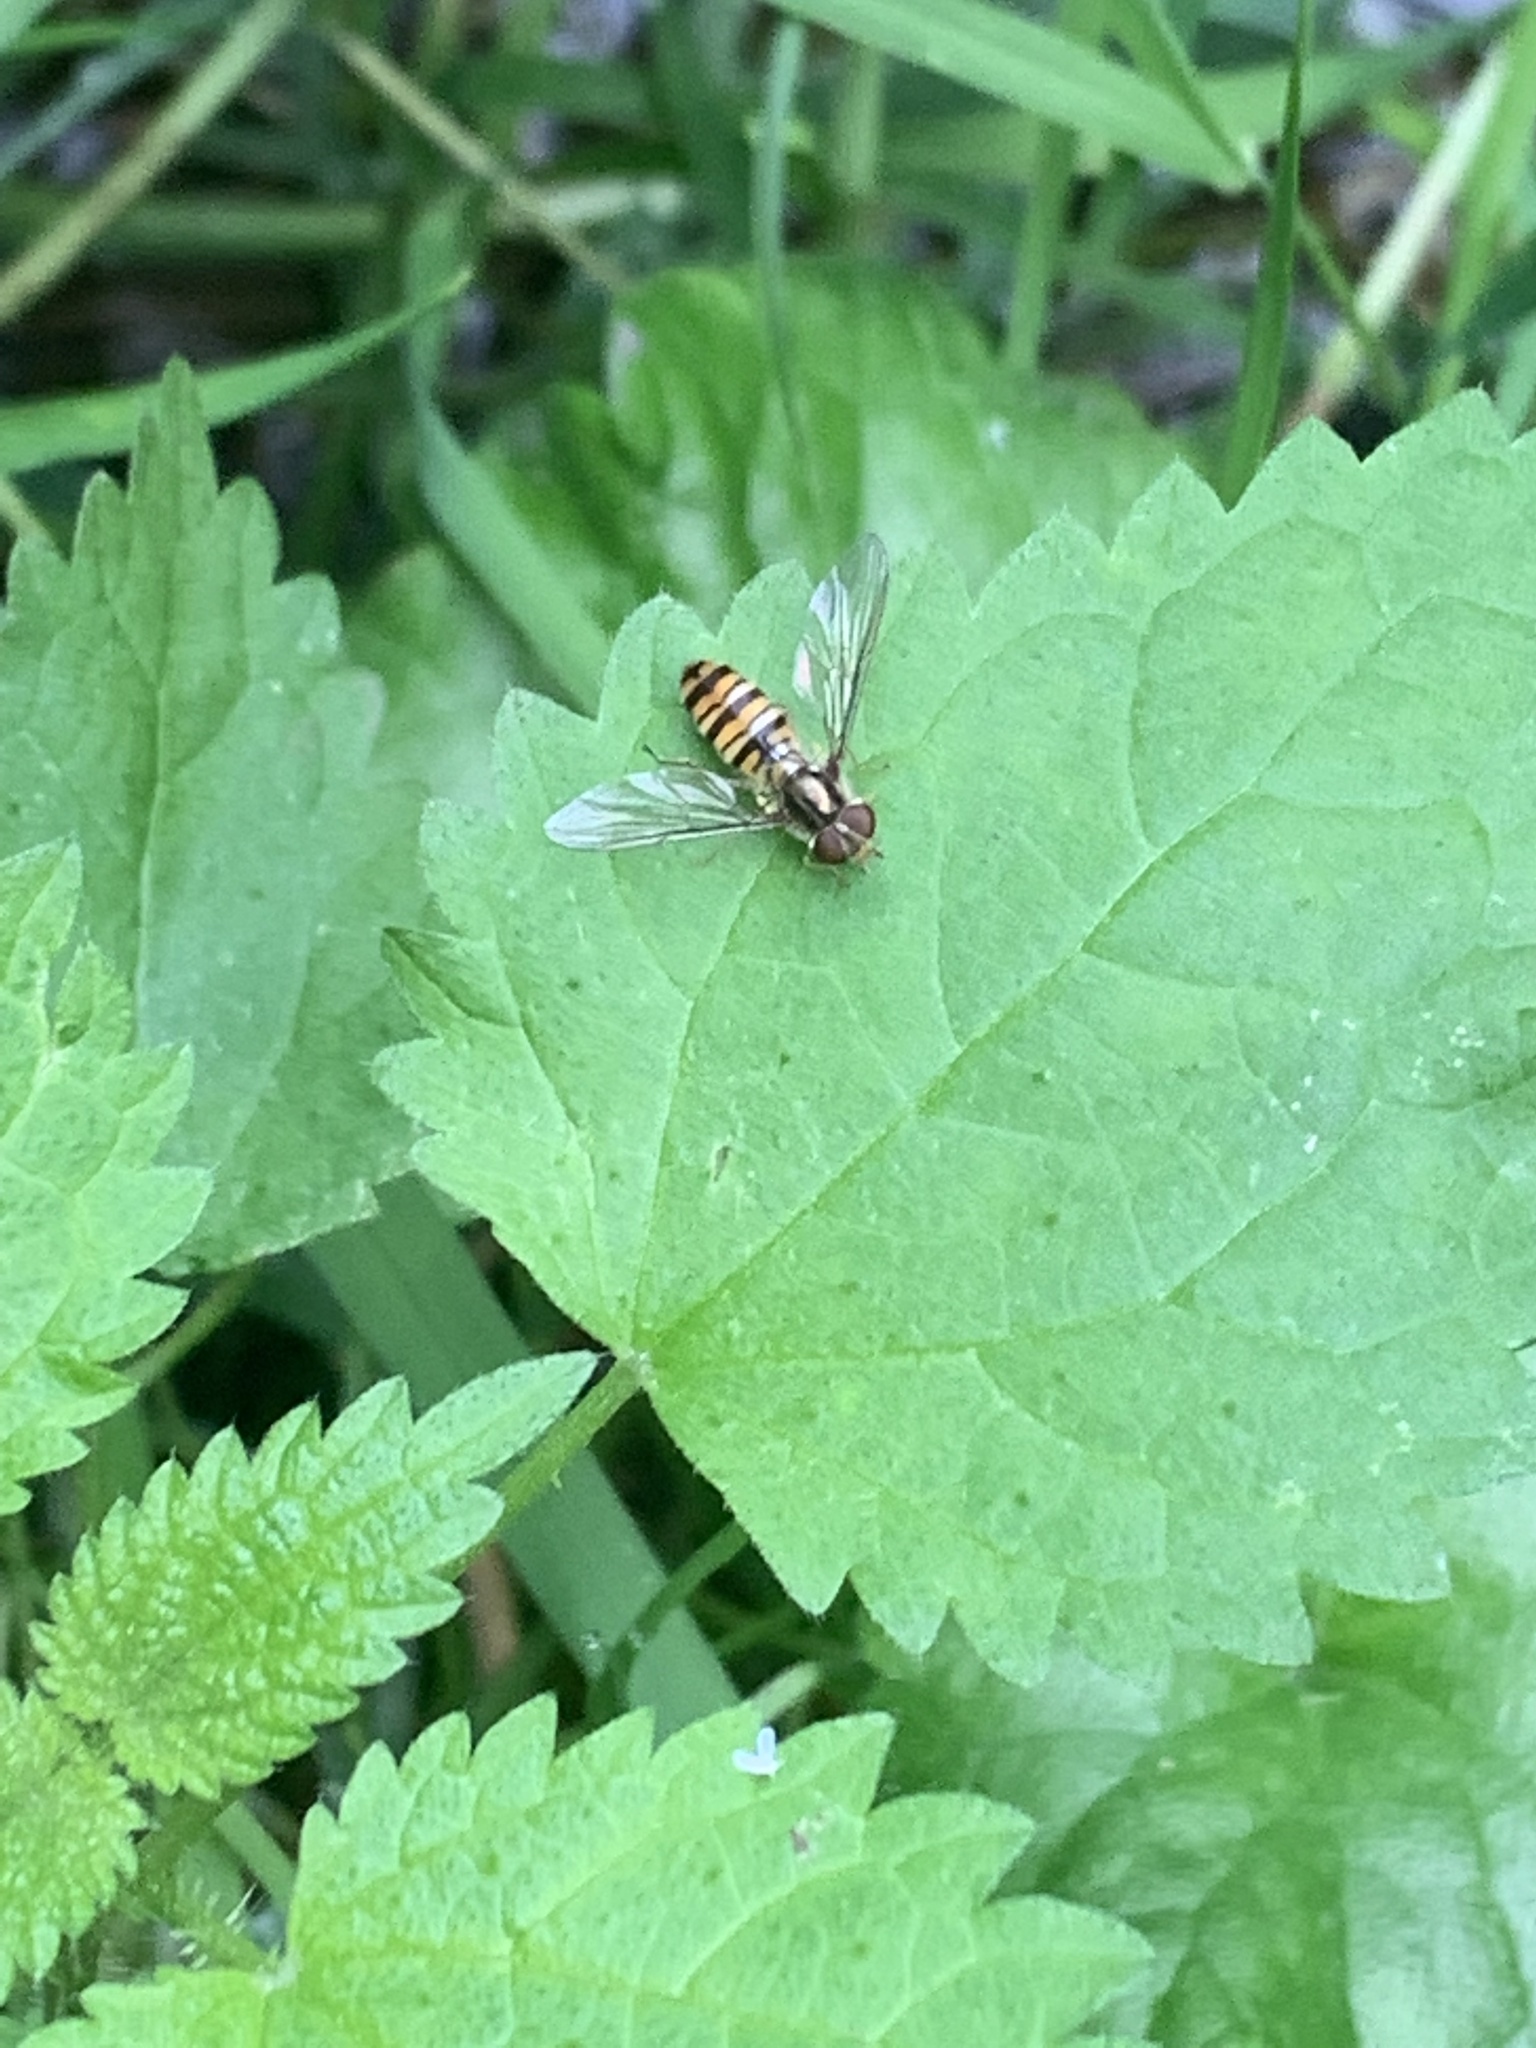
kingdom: Animalia
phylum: Arthropoda
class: Insecta
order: Diptera
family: Syrphidae
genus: Episyrphus
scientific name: Episyrphus balteatus
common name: Marmalade hoverfly
